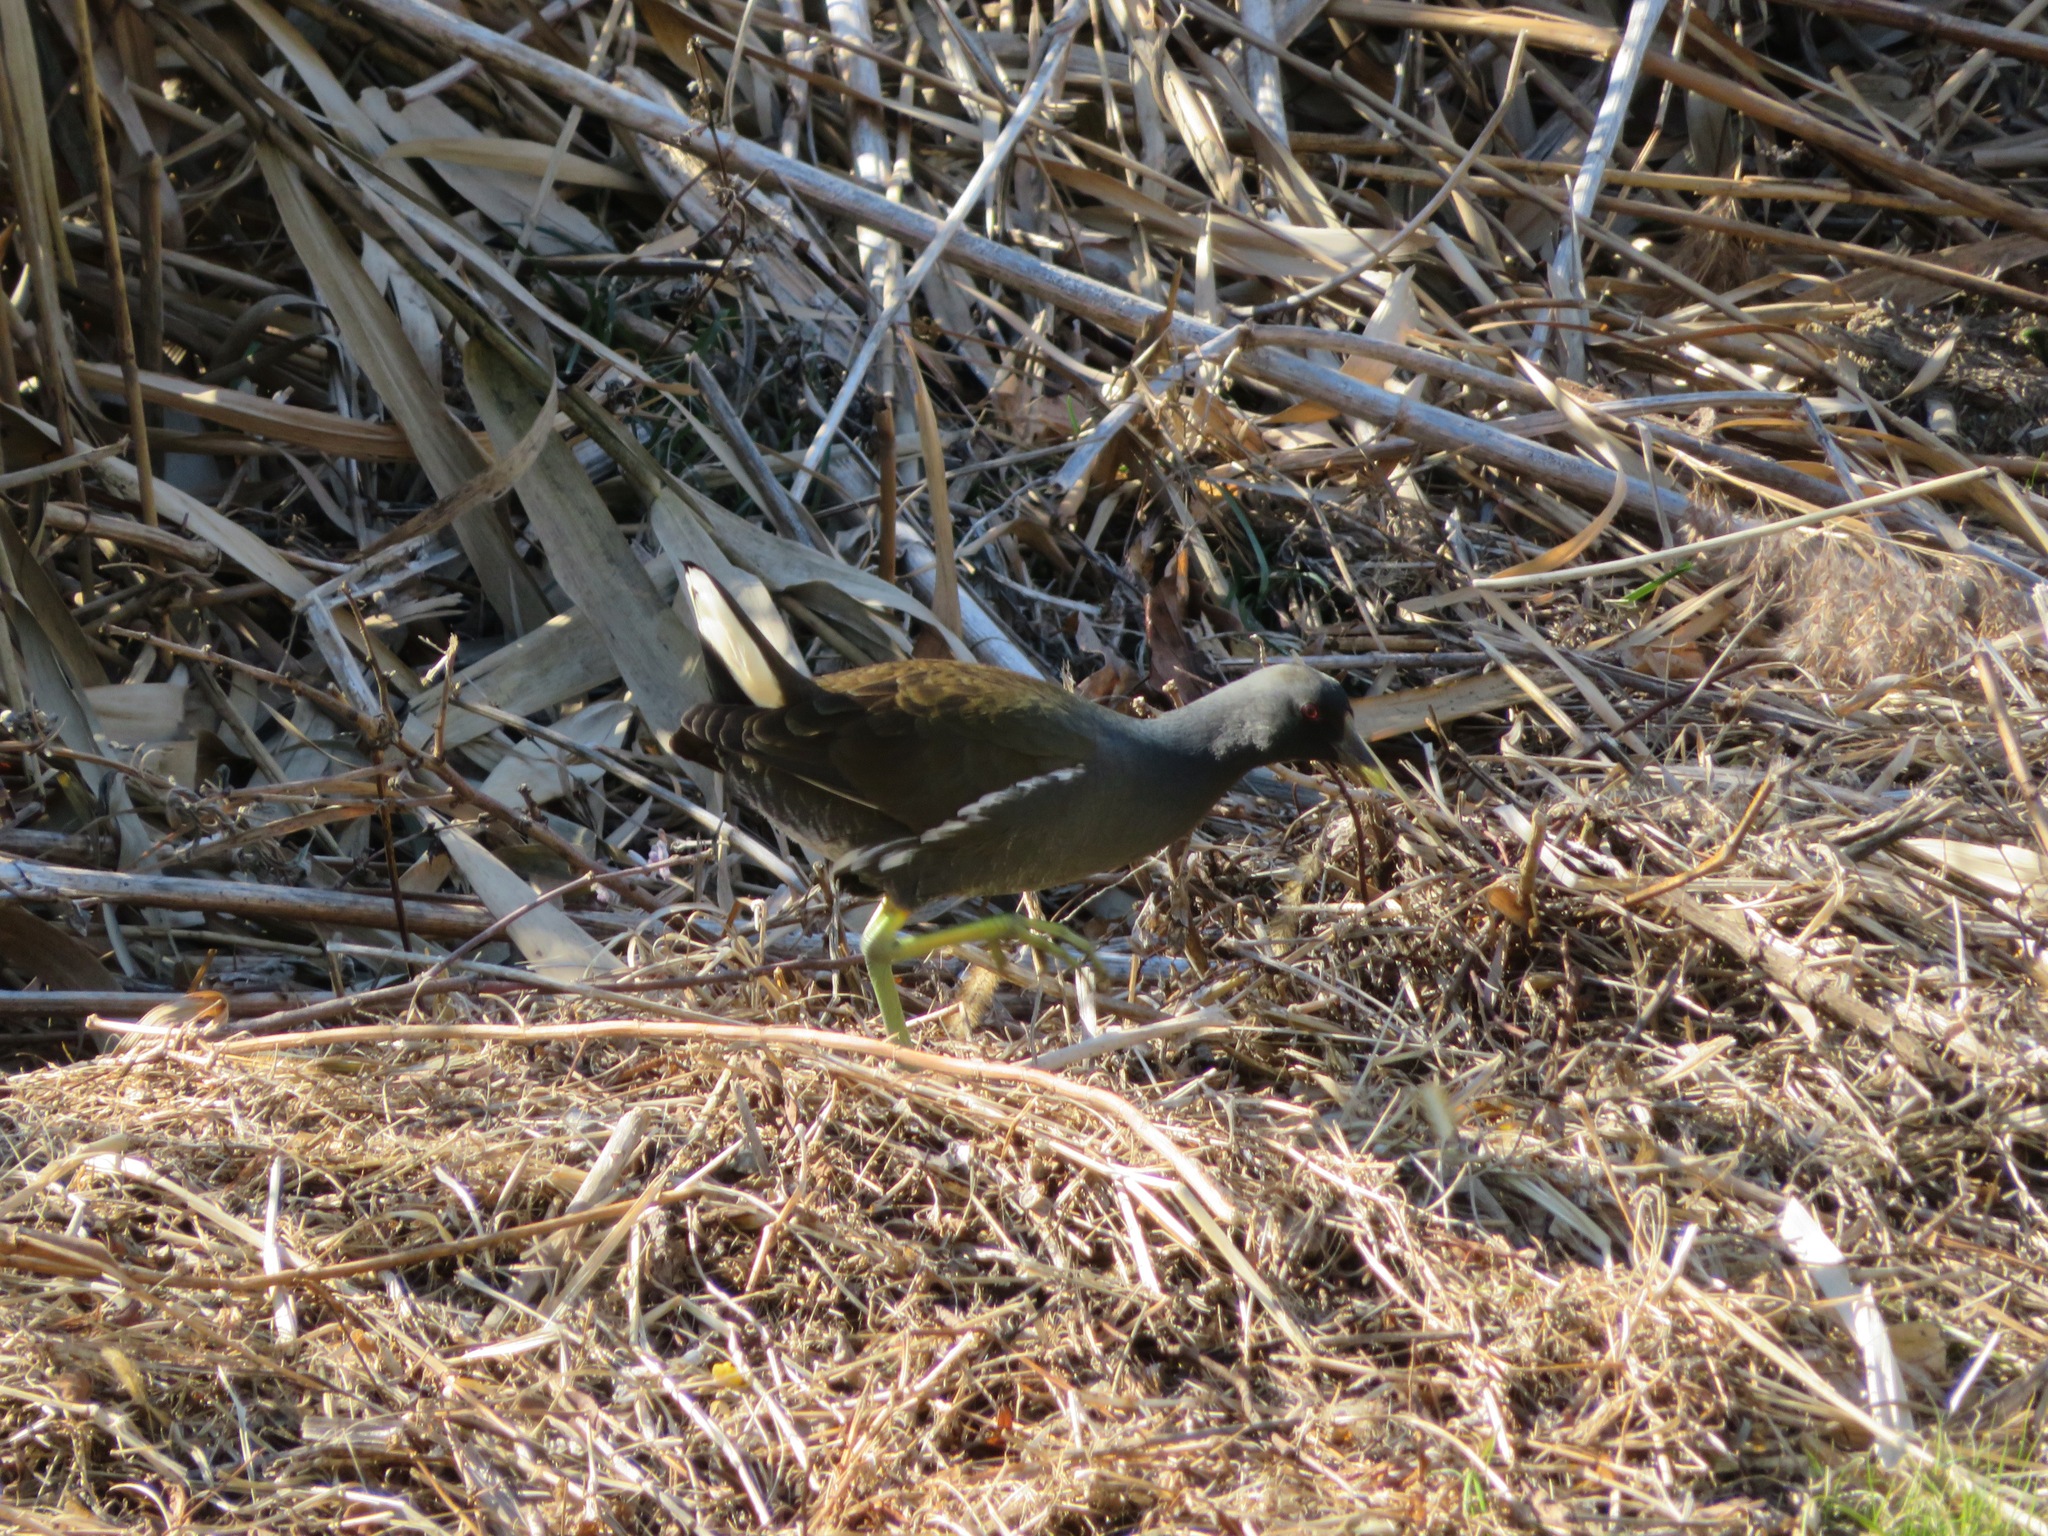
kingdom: Animalia
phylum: Chordata
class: Aves
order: Gruiformes
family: Rallidae
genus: Gallinula
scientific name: Gallinula chloropus
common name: Common moorhen
